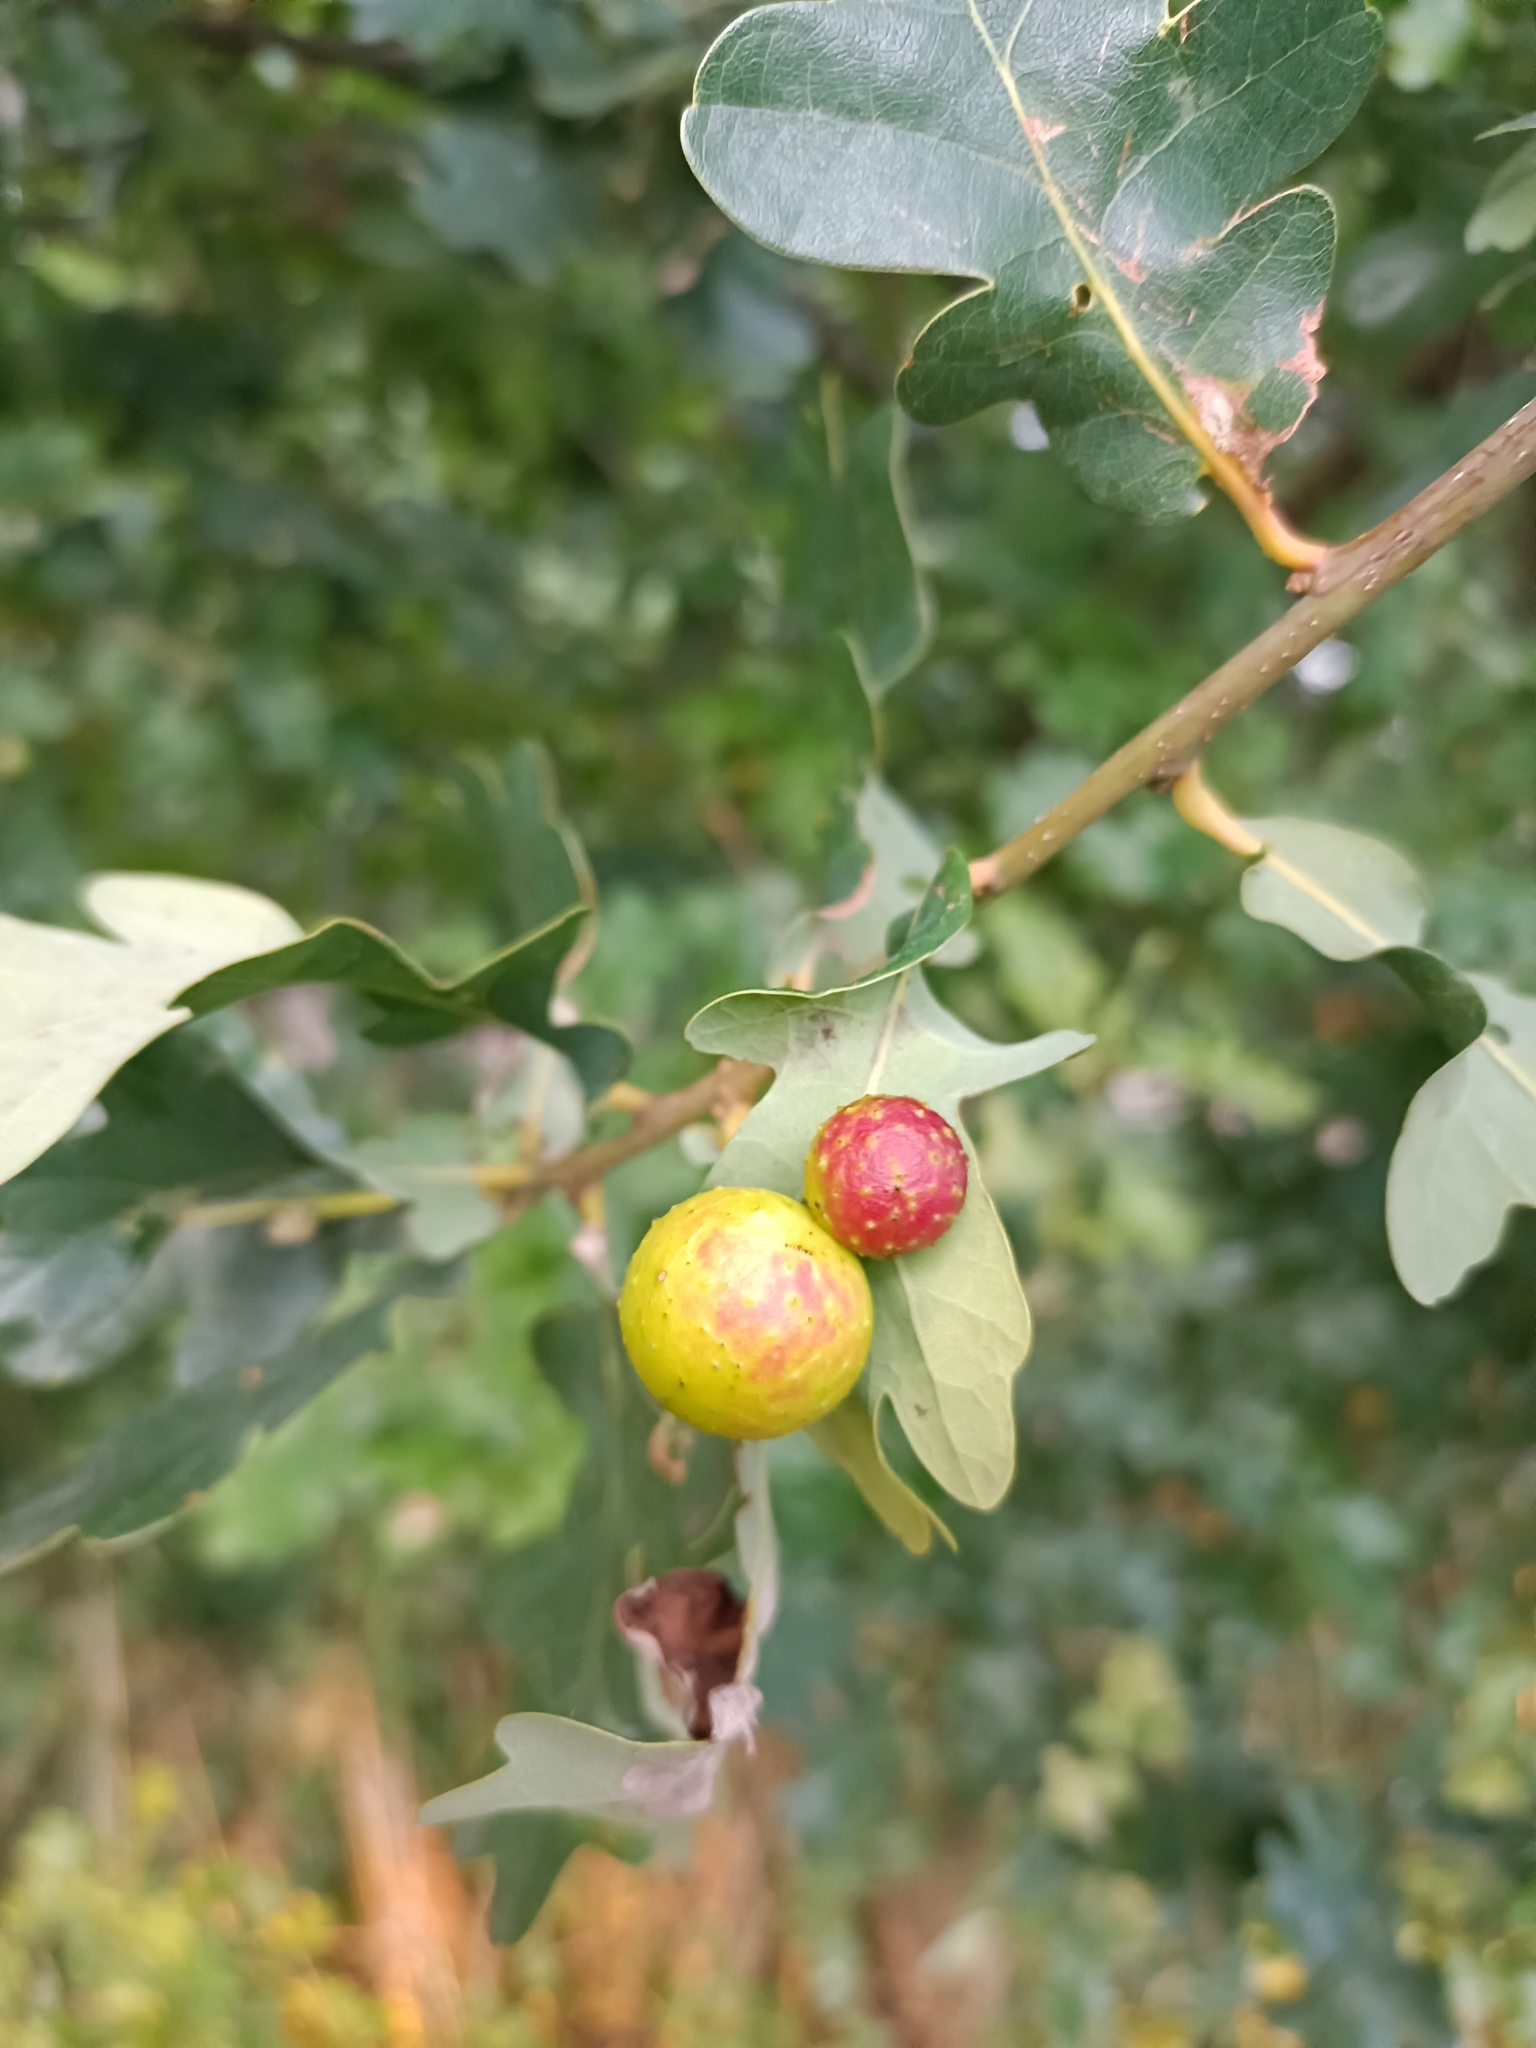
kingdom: Animalia
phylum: Arthropoda
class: Insecta
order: Hymenoptera
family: Cynipidae
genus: Cynips
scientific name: Cynips quercusfolii
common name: Cherry gall
